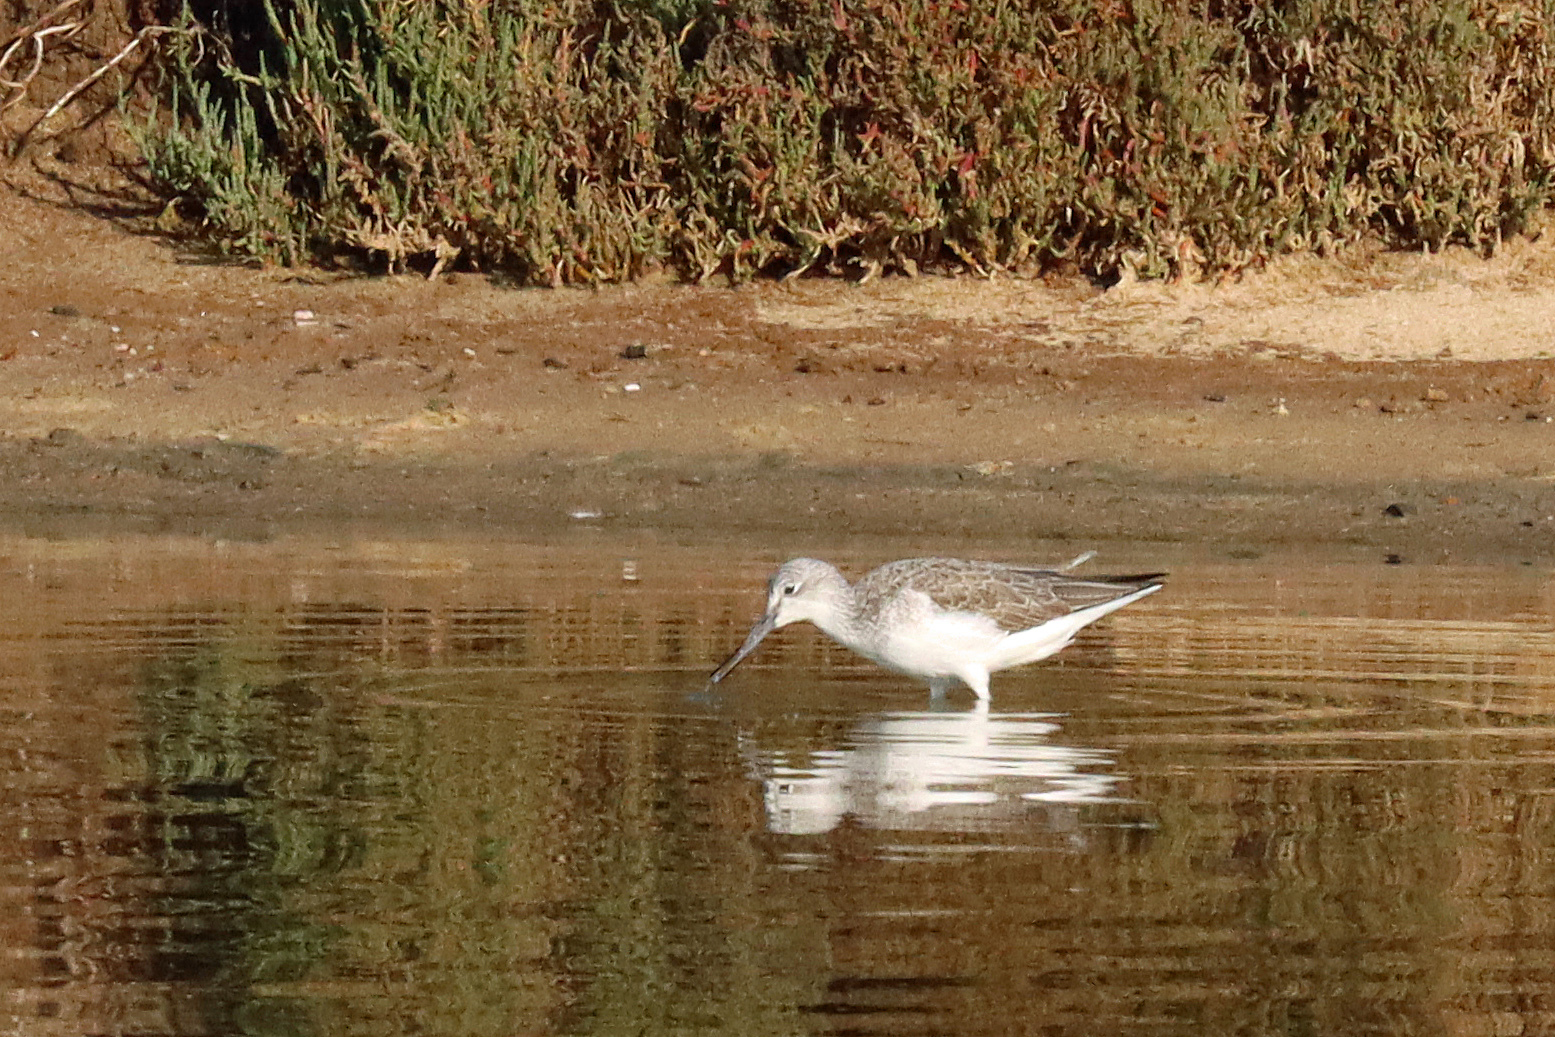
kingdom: Animalia
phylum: Chordata
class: Aves
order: Charadriiformes
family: Scolopacidae
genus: Tringa
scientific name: Tringa nebularia
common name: Common greenshank
